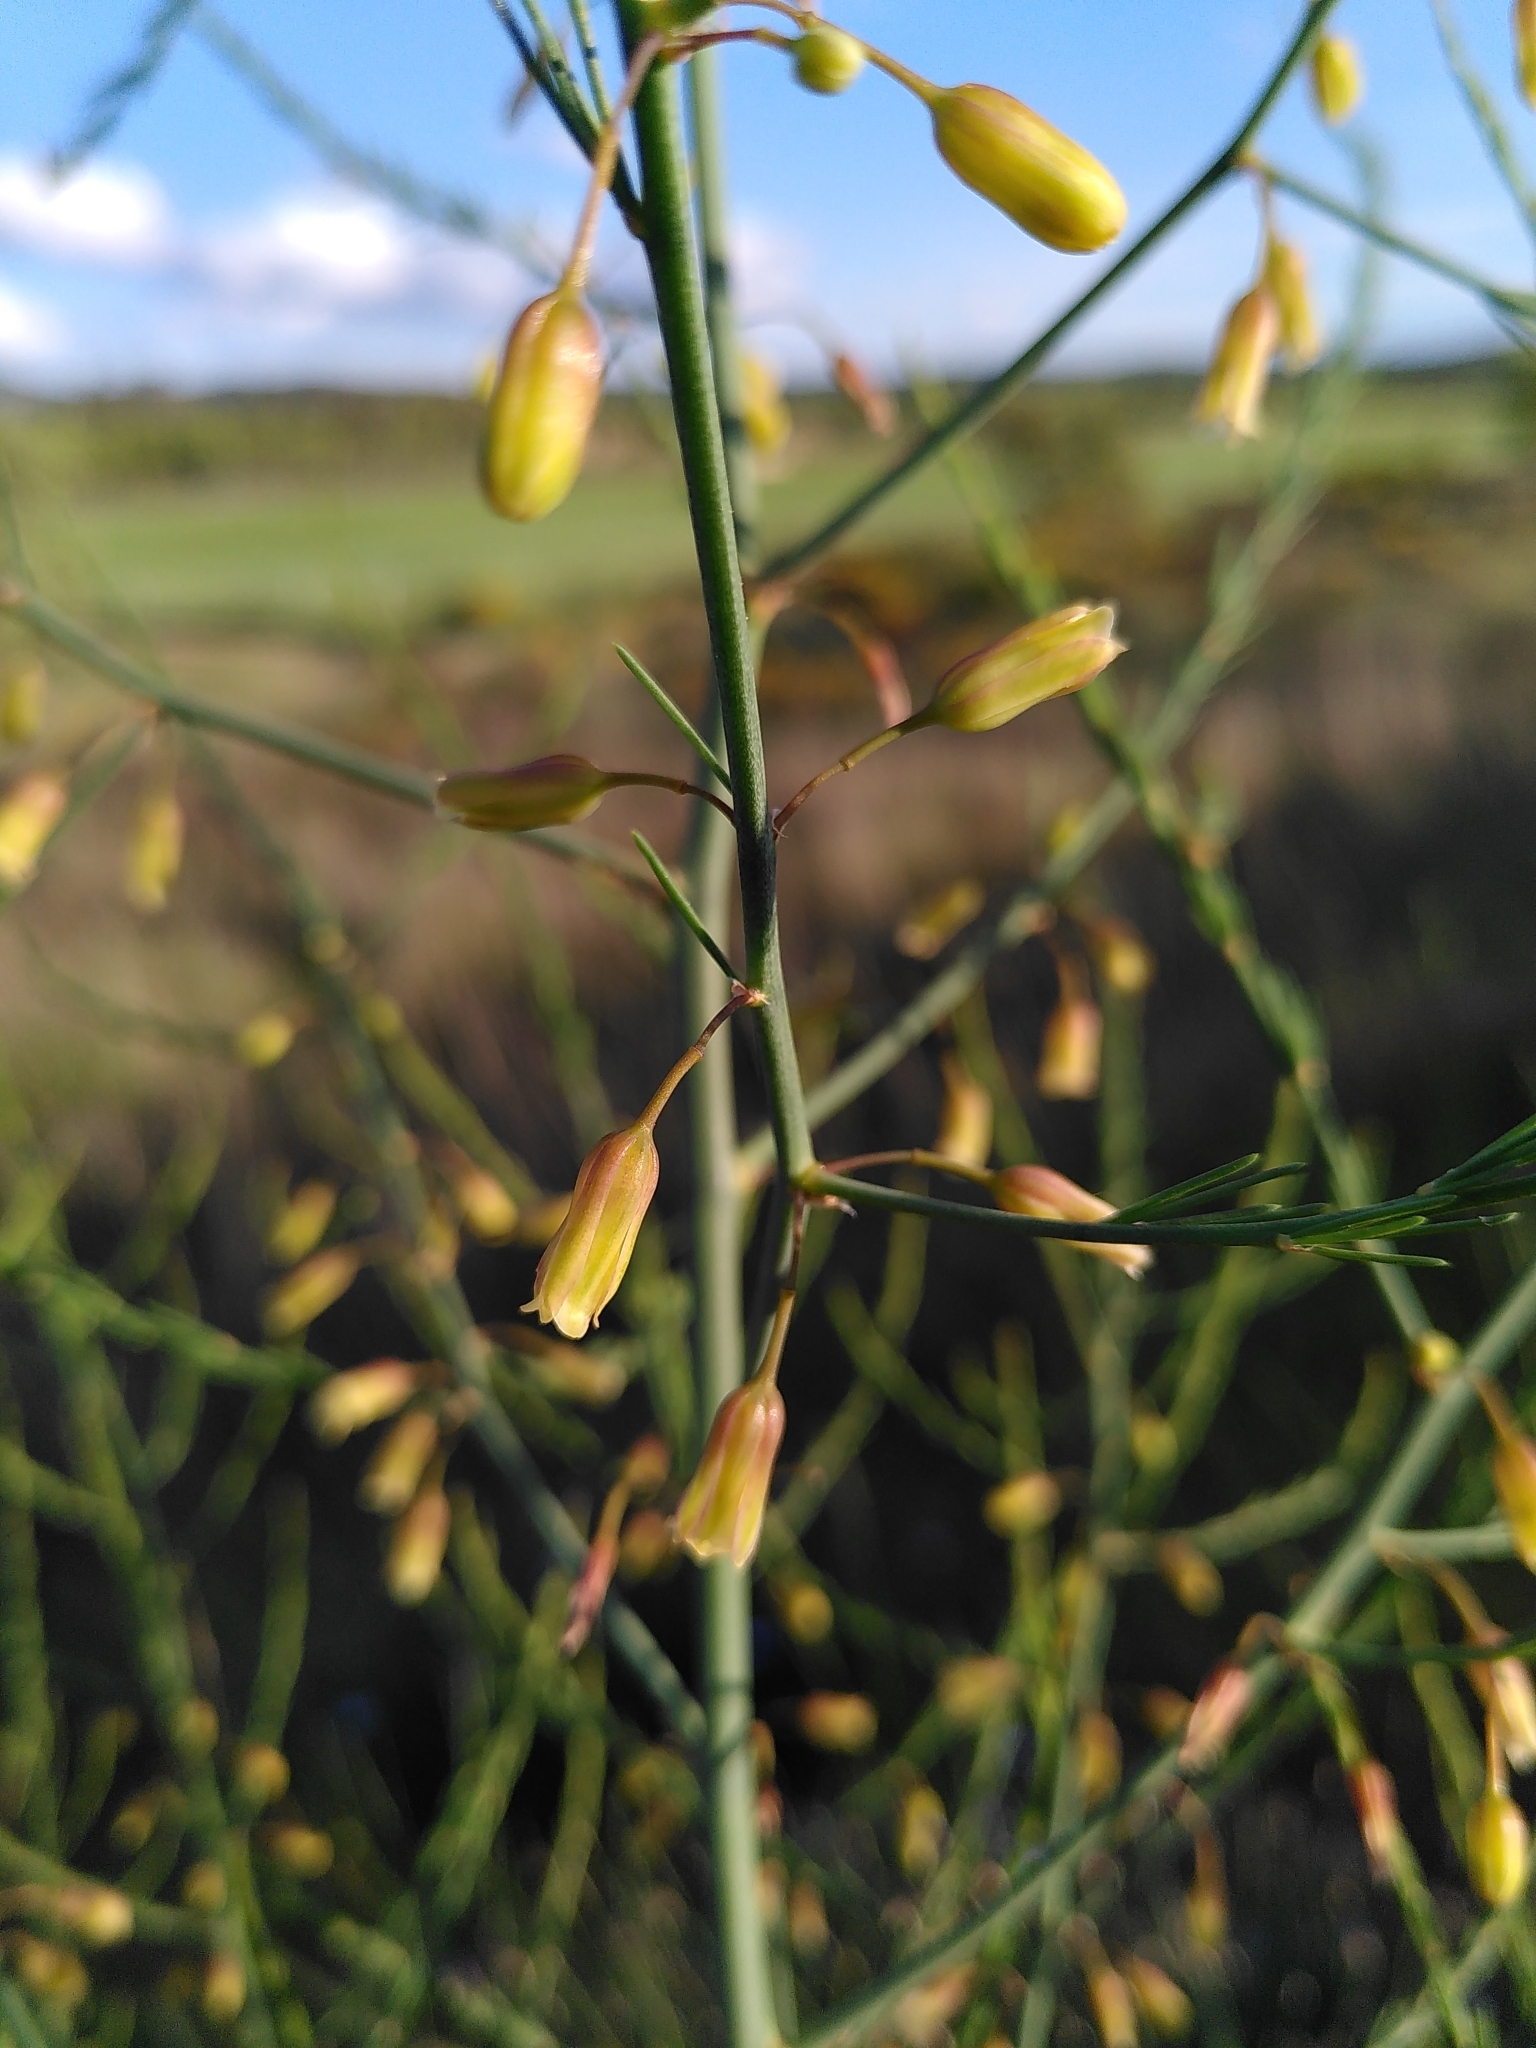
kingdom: Plantae
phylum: Tracheophyta
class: Liliopsida
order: Asparagales
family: Asparagaceae
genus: Asparagus
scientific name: Asparagus officinalis
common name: Garden asparagus
